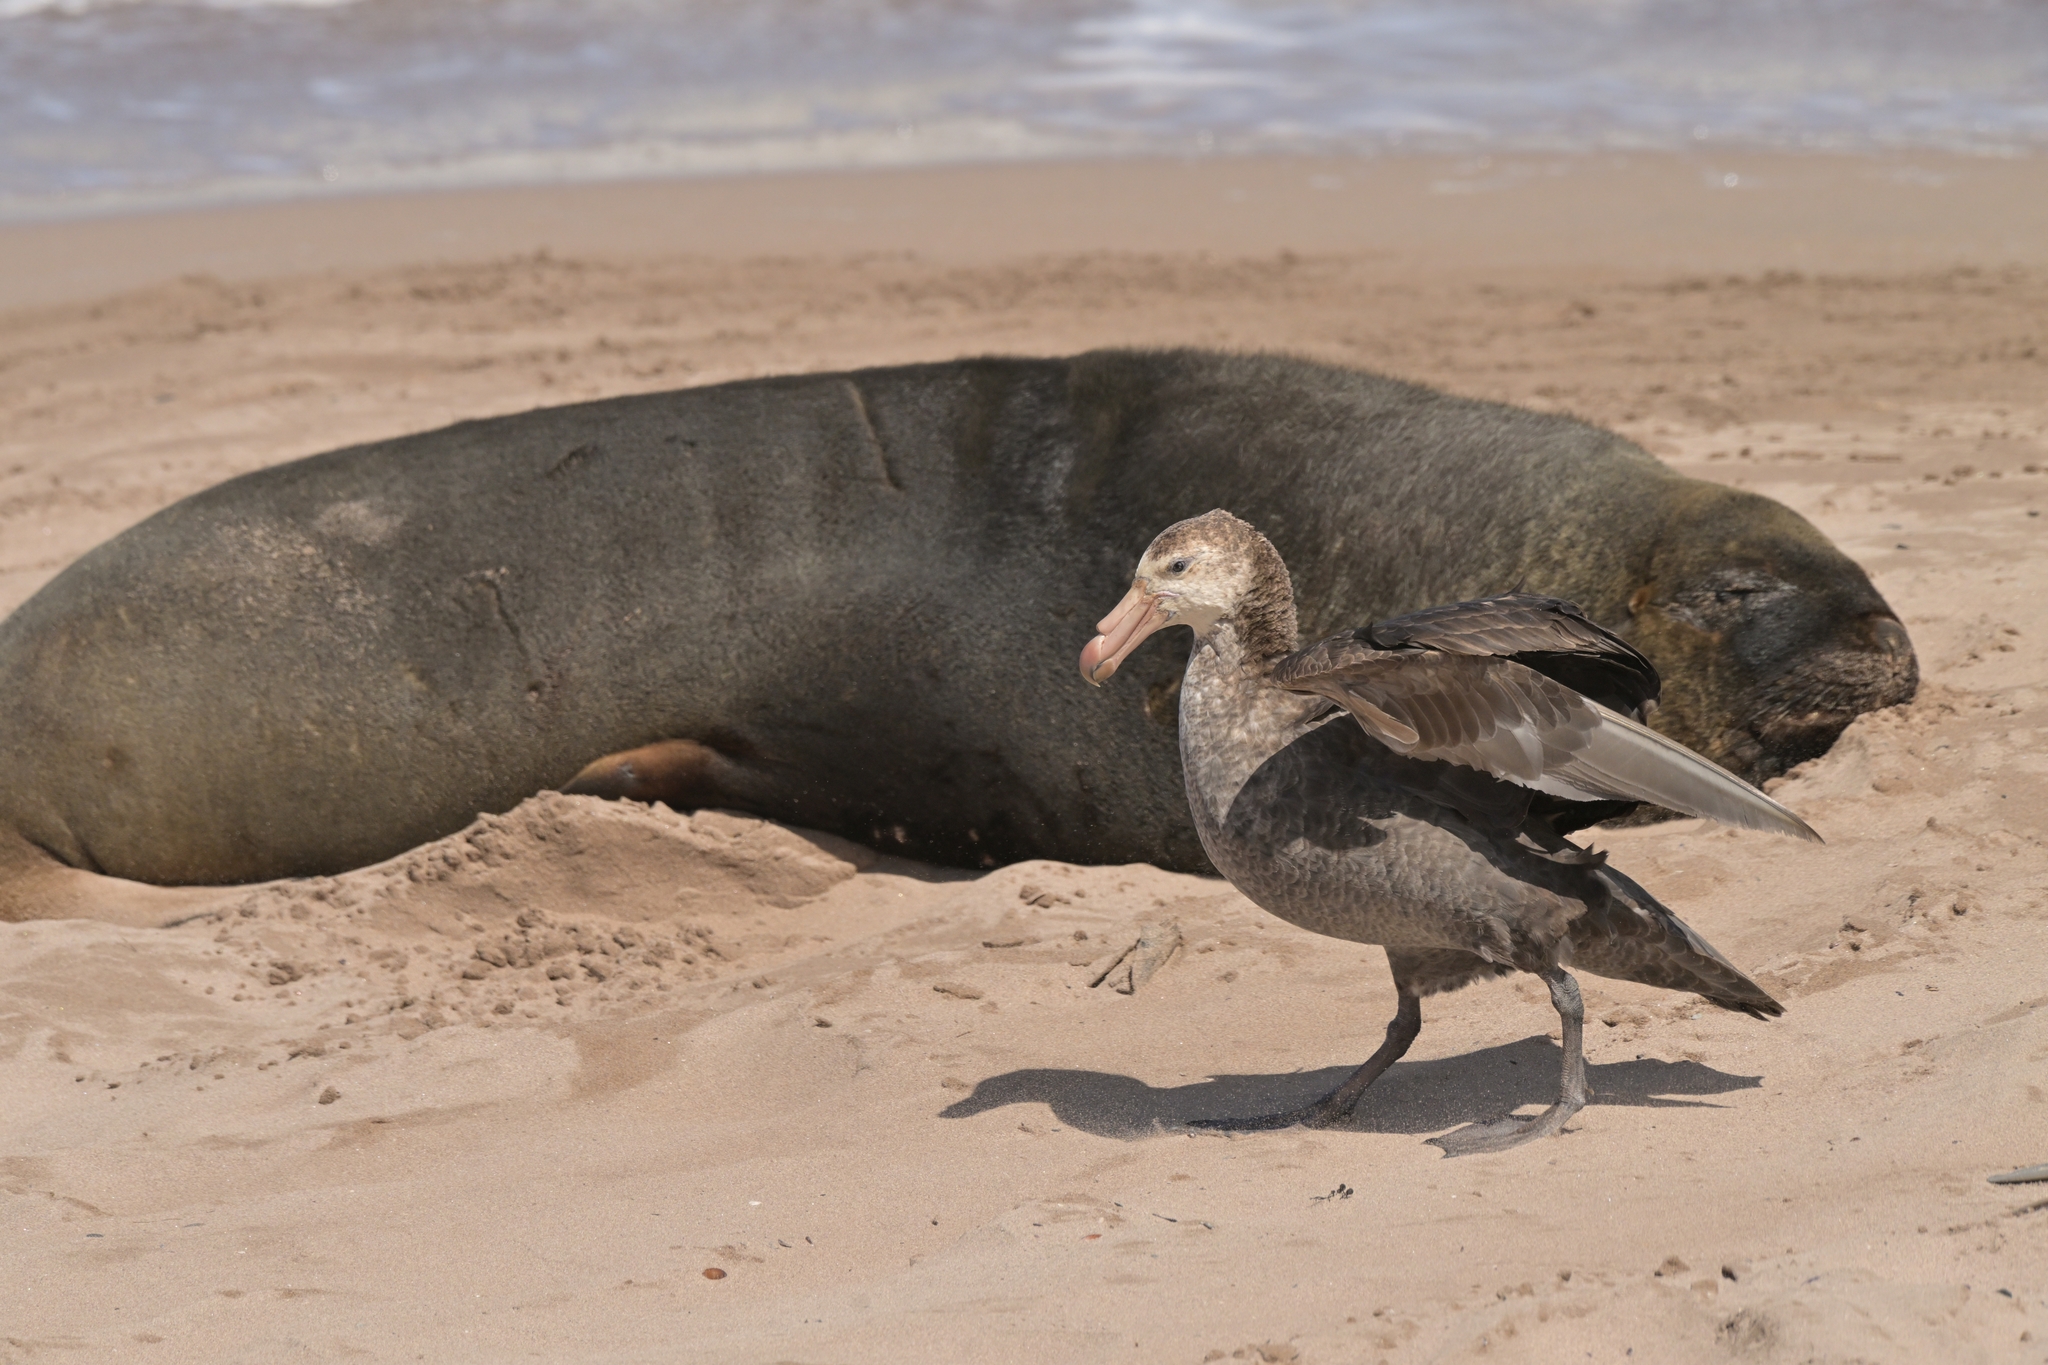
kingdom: Animalia
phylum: Chordata
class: Aves
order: Procellariiformes
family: Procellariidae
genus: Macronectes
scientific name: Macronectes halli
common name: Northern giant petrel
